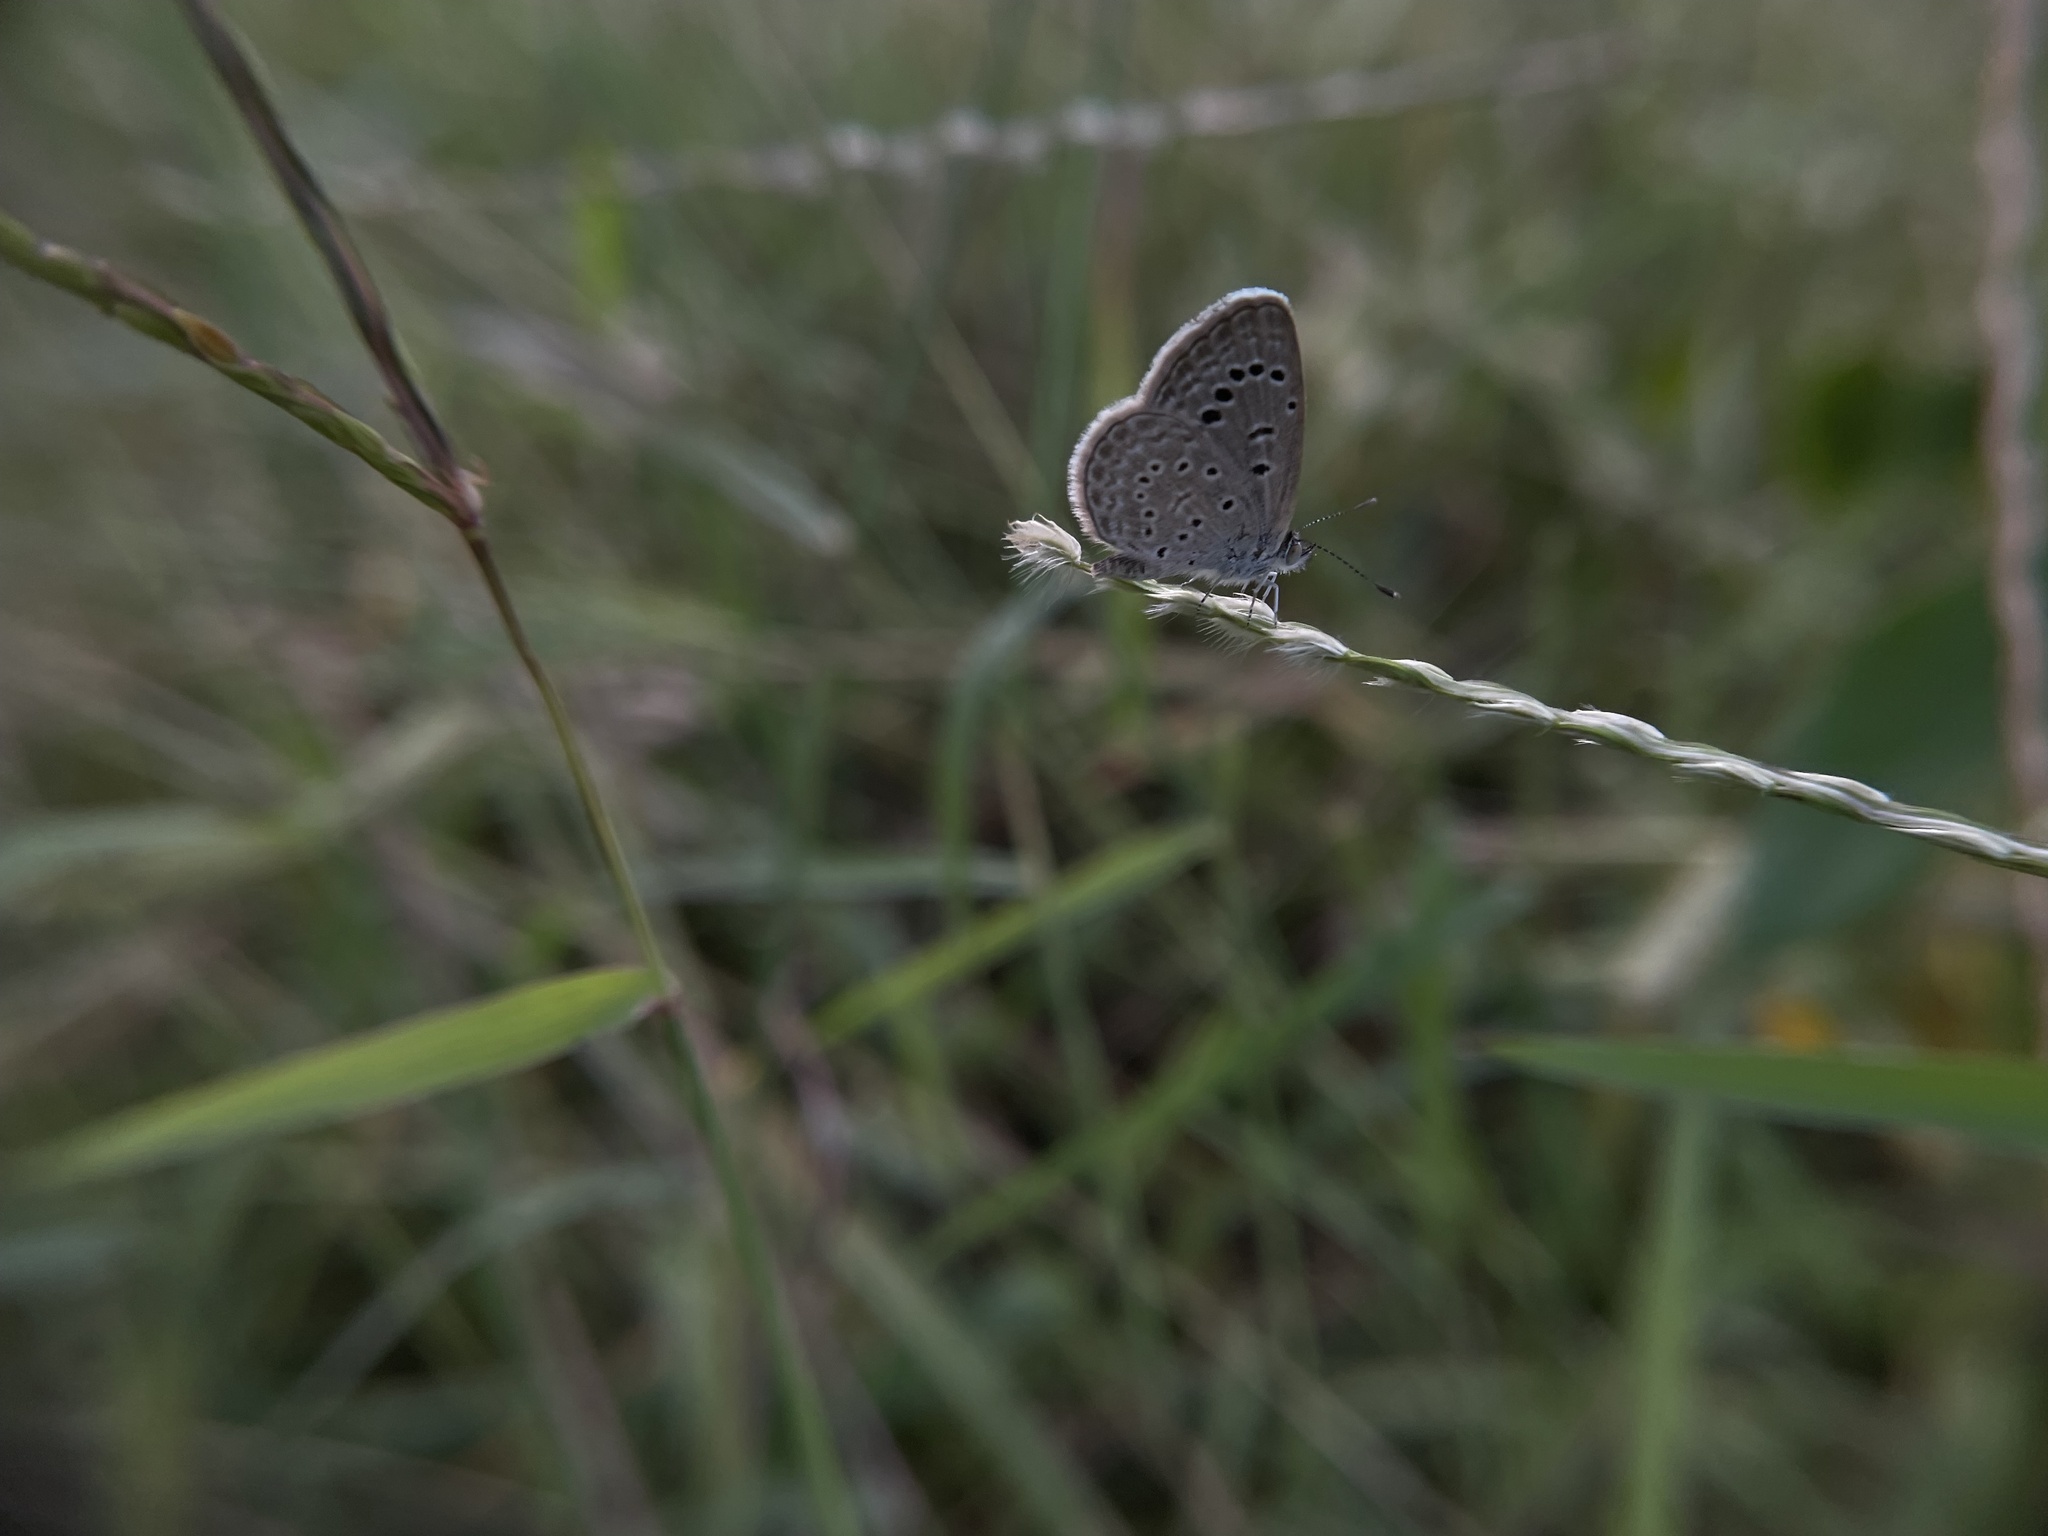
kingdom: Animalia
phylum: Arthropoda
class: Insecta
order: Lepidoptera
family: Lycaenidae
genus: Zizeeria
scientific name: Zizeeria karsandra
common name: Dark grass blue
